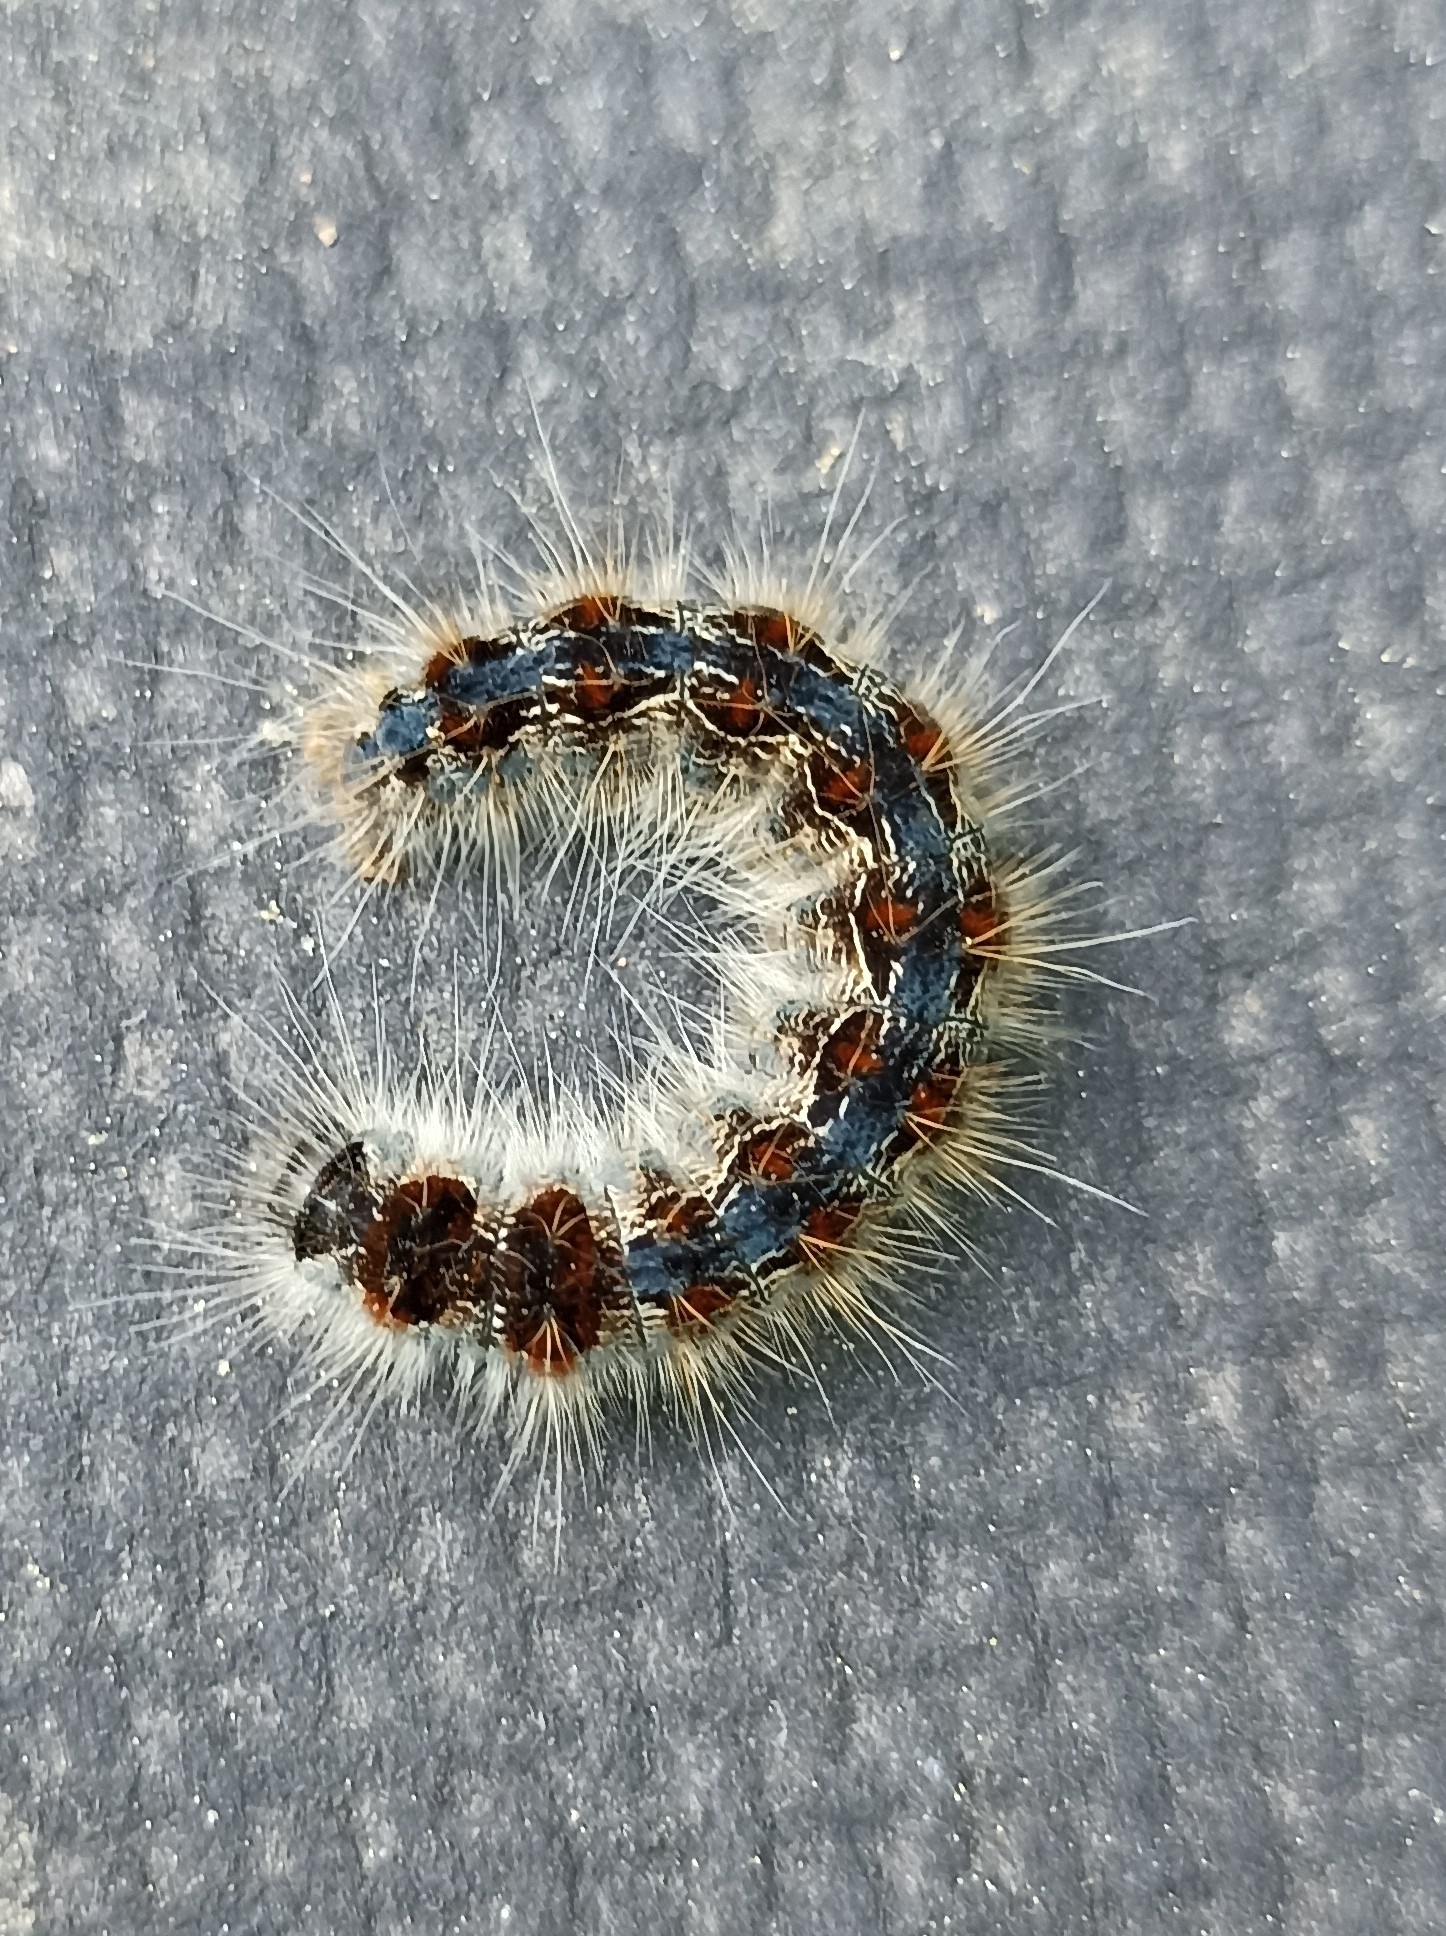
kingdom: Animalia
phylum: Arthropoda
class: Insecta
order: Lepidoptera
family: Lasiocampidae
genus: Eriogaster
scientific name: Eriogaster rimicola
